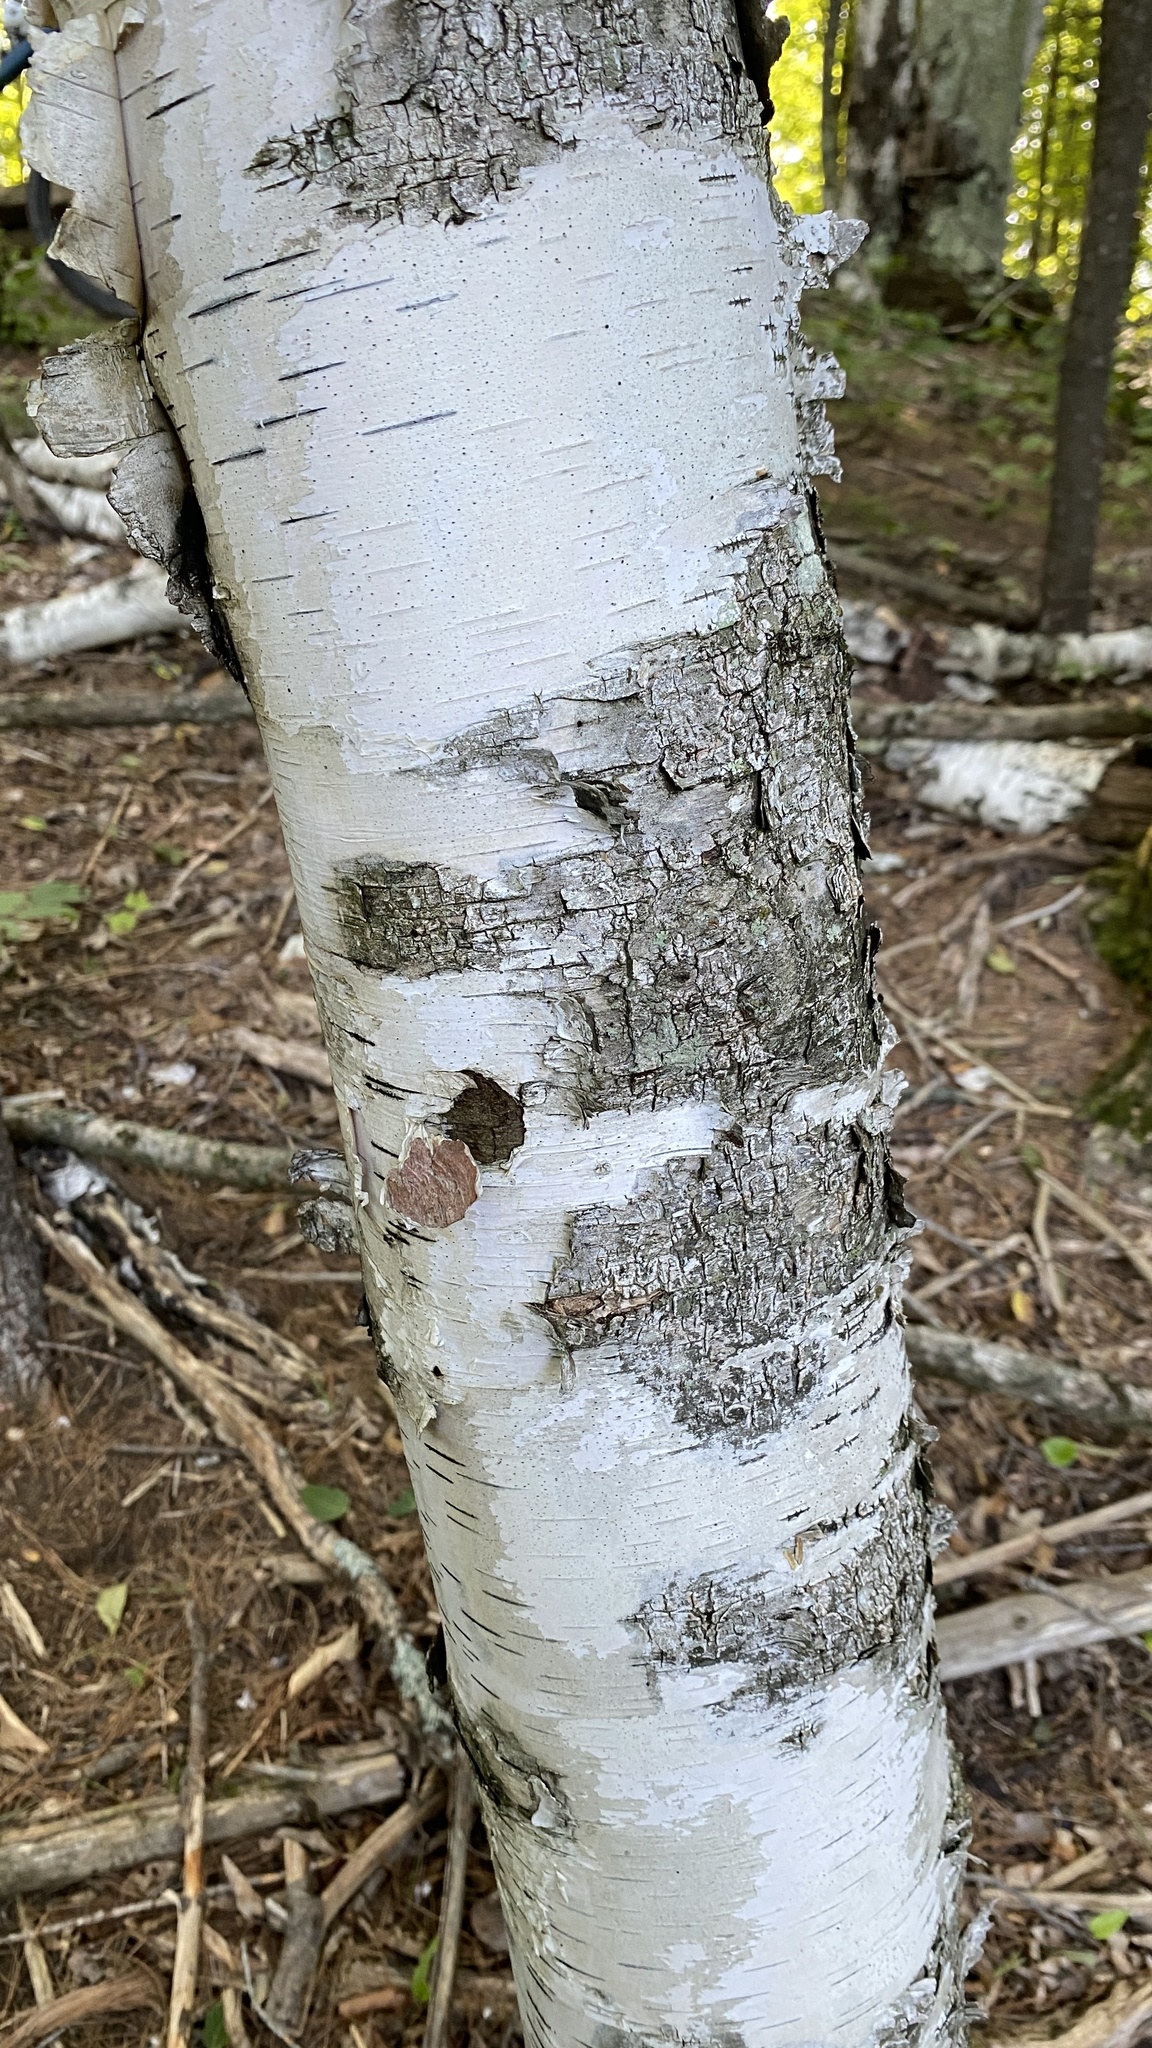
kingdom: Plantae
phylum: Tracheophyta
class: Magnoliopsida
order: Fagales
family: Betulaceae
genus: Betula
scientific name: Betula papyrifera
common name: Paper birch
